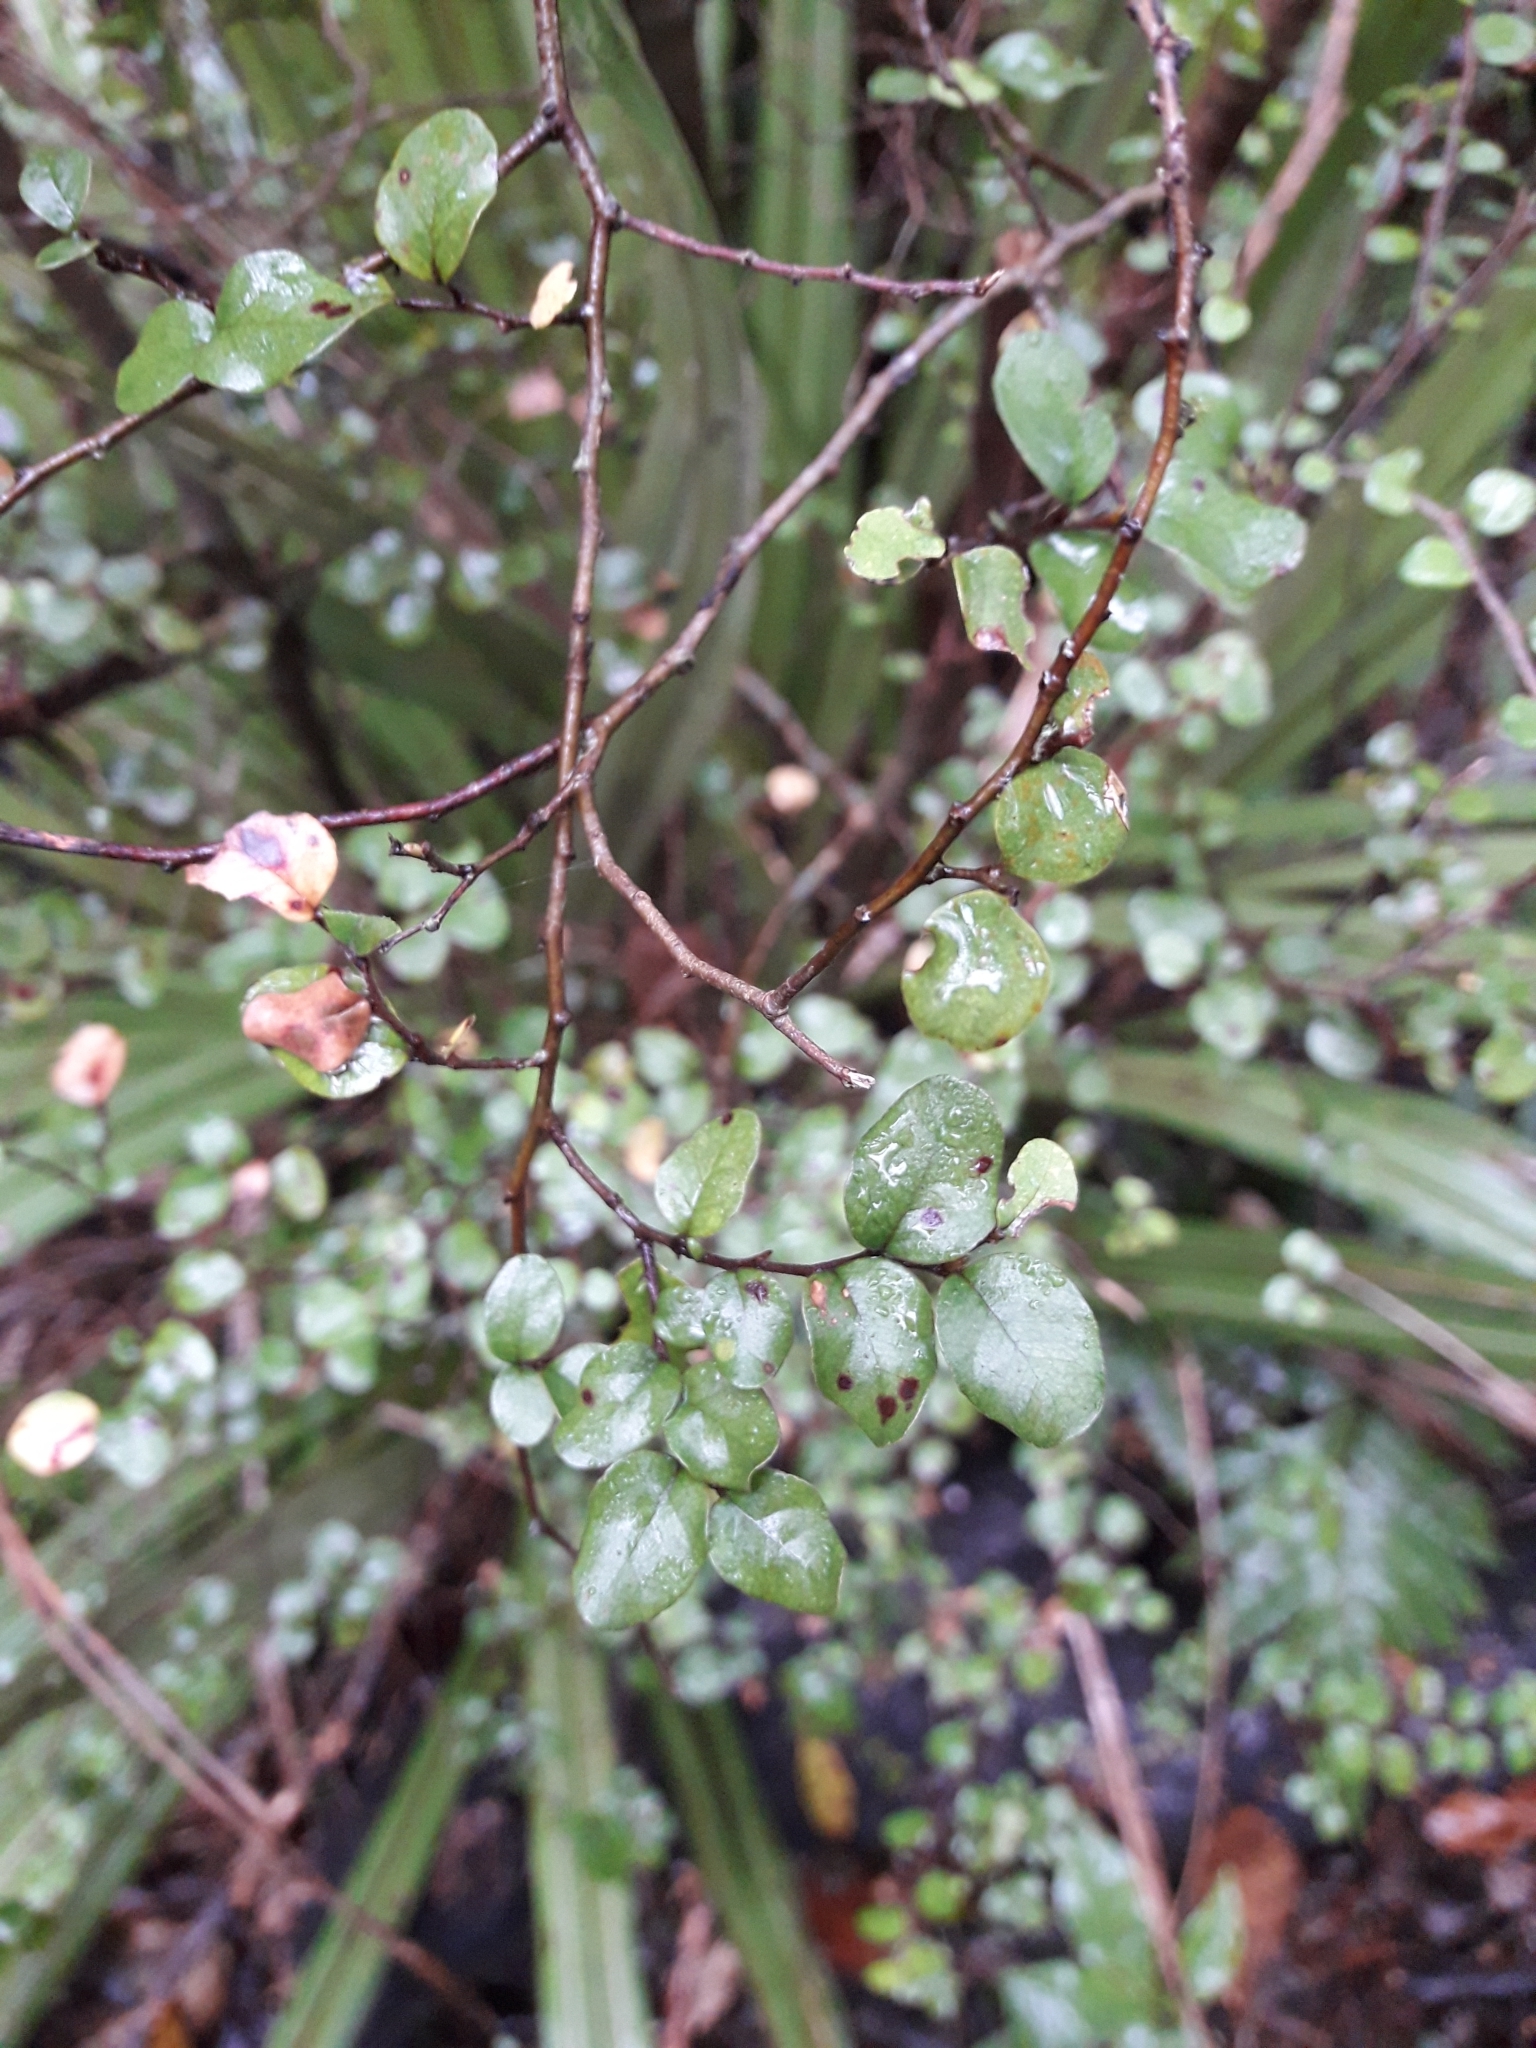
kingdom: Plantae
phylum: Tracheophyta
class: Magnoliopsida
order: Fagales
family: Nothofagaceae
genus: Nothofagus
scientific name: Nothofagus solandri
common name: Black beech
